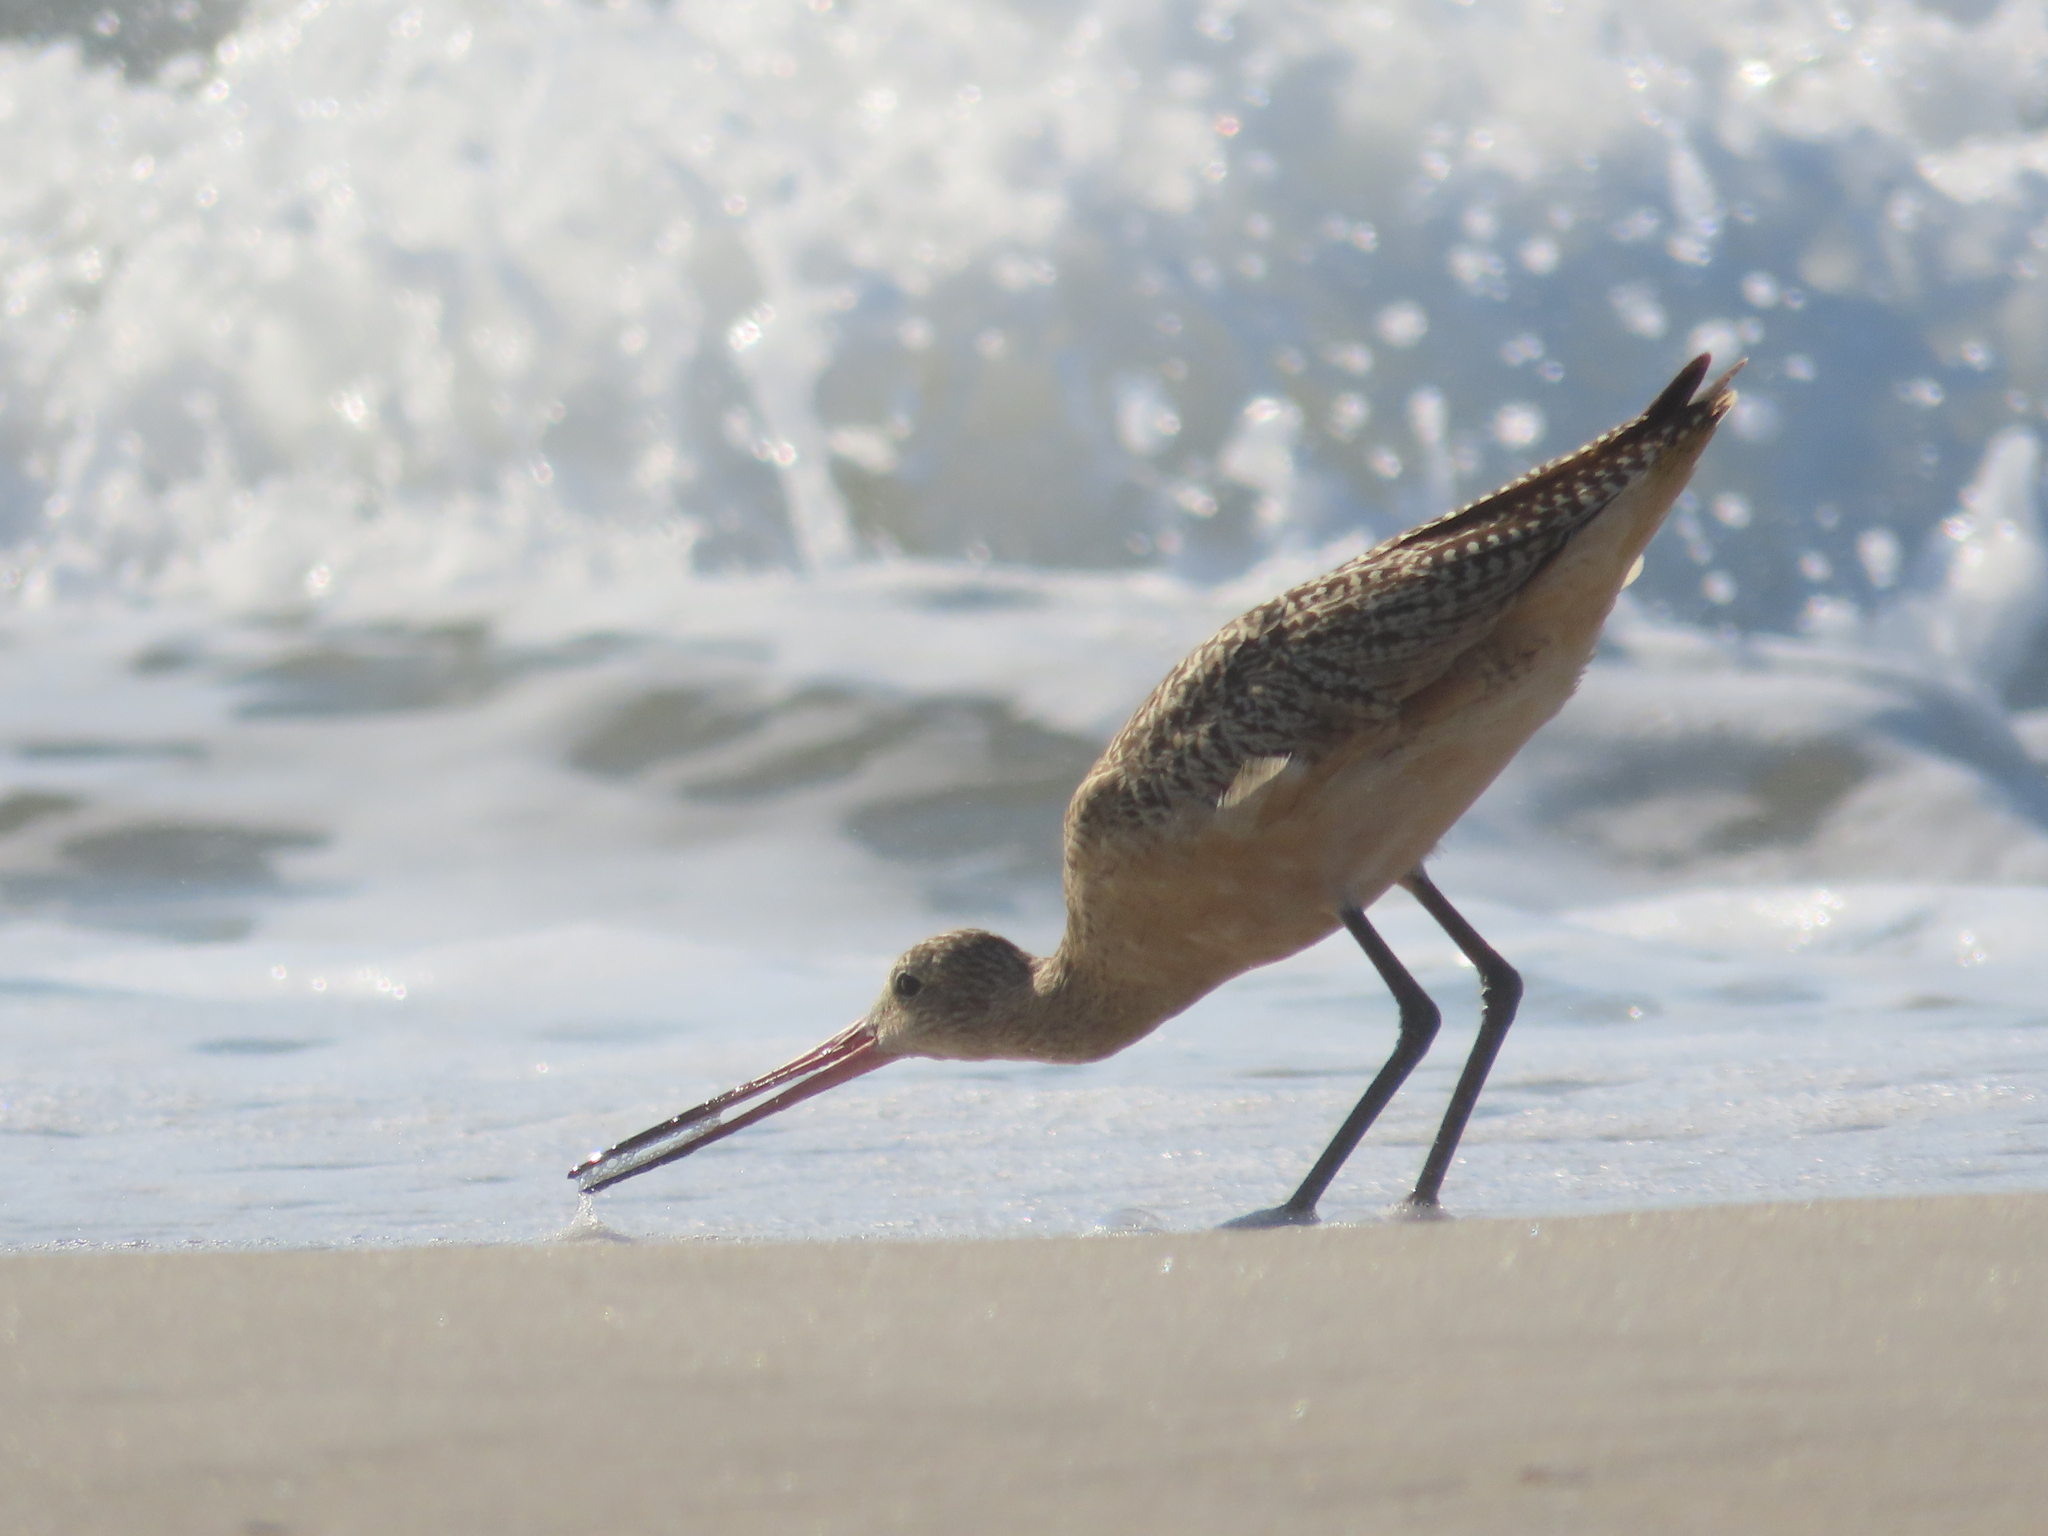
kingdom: Animalia
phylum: Chordata
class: Aves
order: Charadriiformes
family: Scolopacidae
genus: Limosa
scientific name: Limosa fedoa
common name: Marbled godwit
